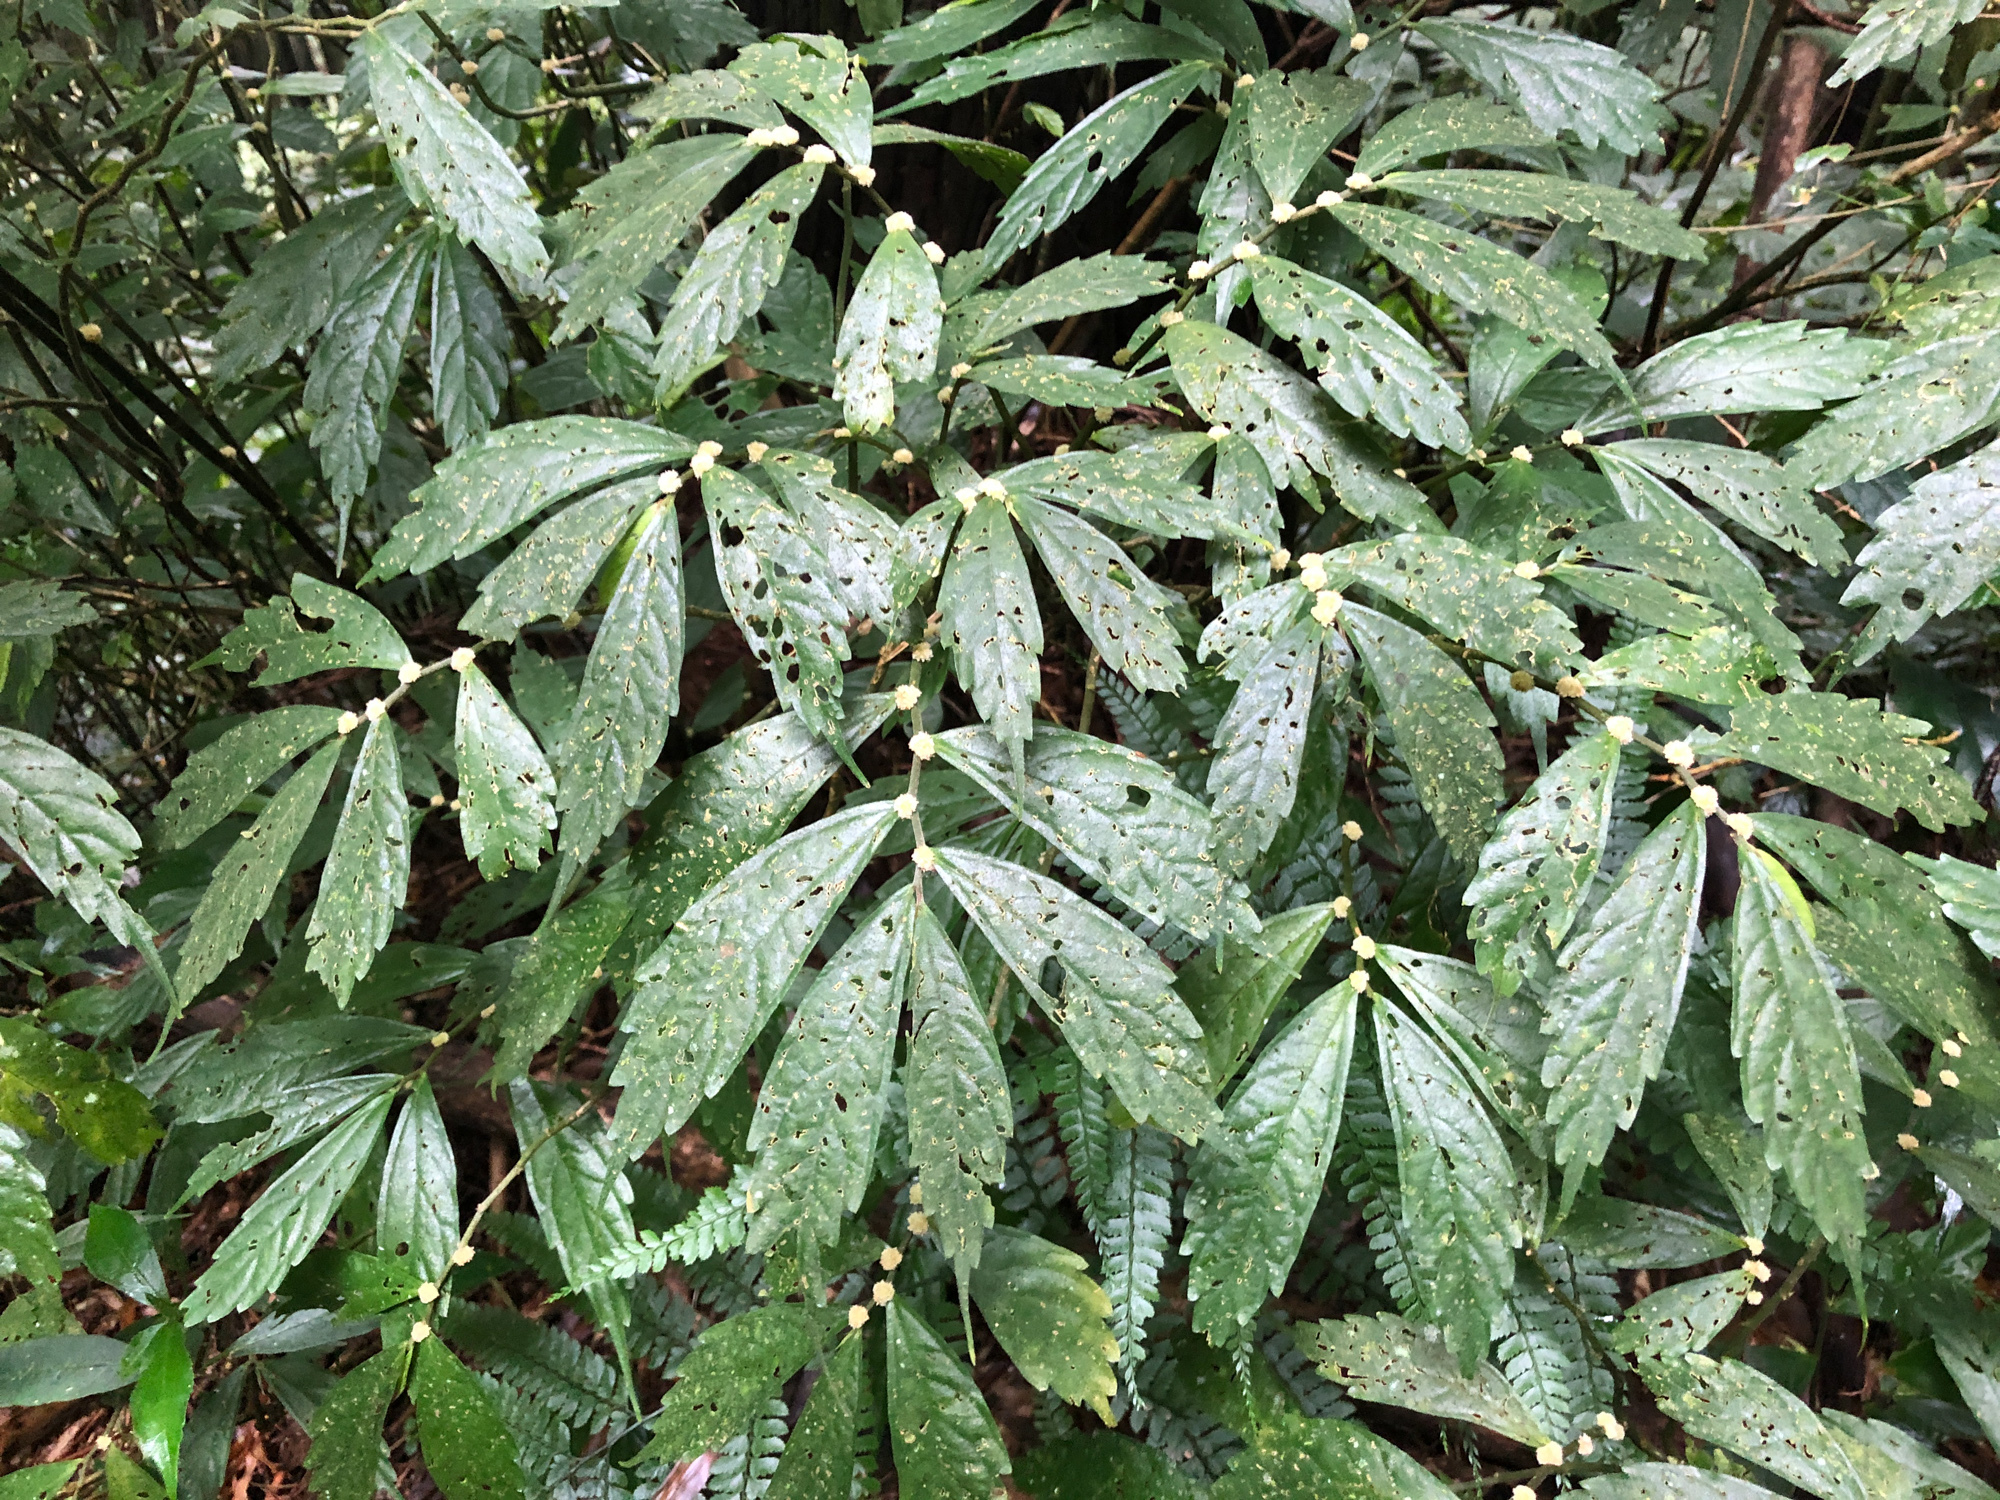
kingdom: Plantae
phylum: Tracheophyta
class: Magnoliopsida
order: Rosales
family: Urticaceae
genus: Elatostema
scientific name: Elatostema lineolatum
